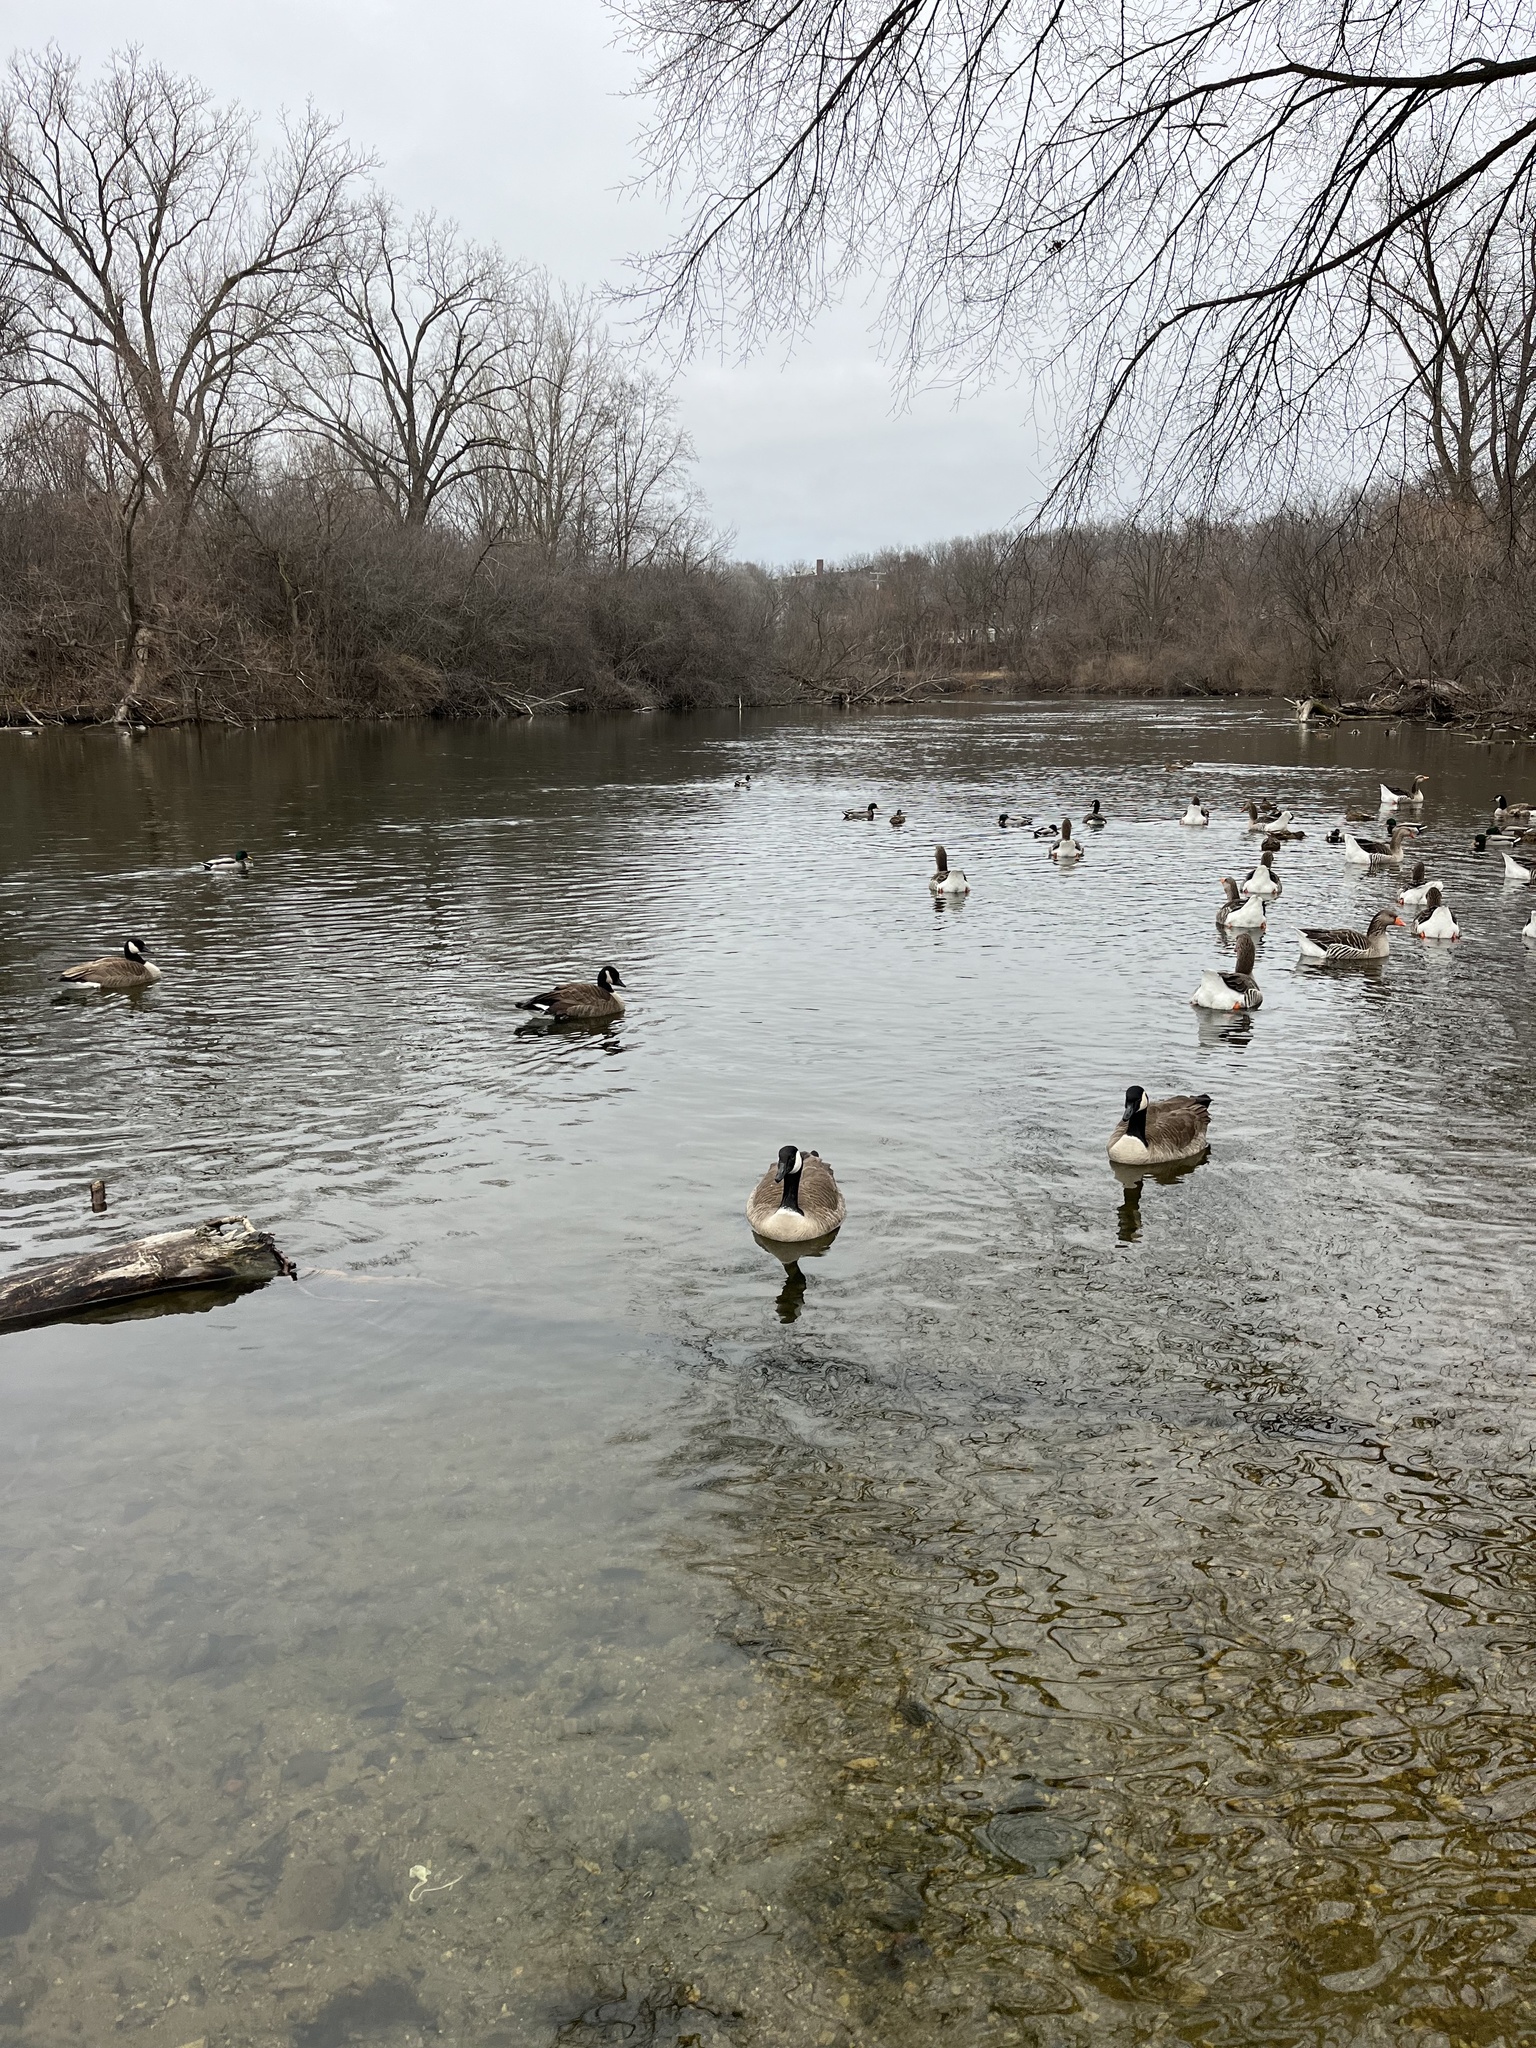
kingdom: Animalia
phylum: Chordata
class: Aves
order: Anseriformes
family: Anatidae
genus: Branta
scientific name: Branta canadensis
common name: Canada goose
